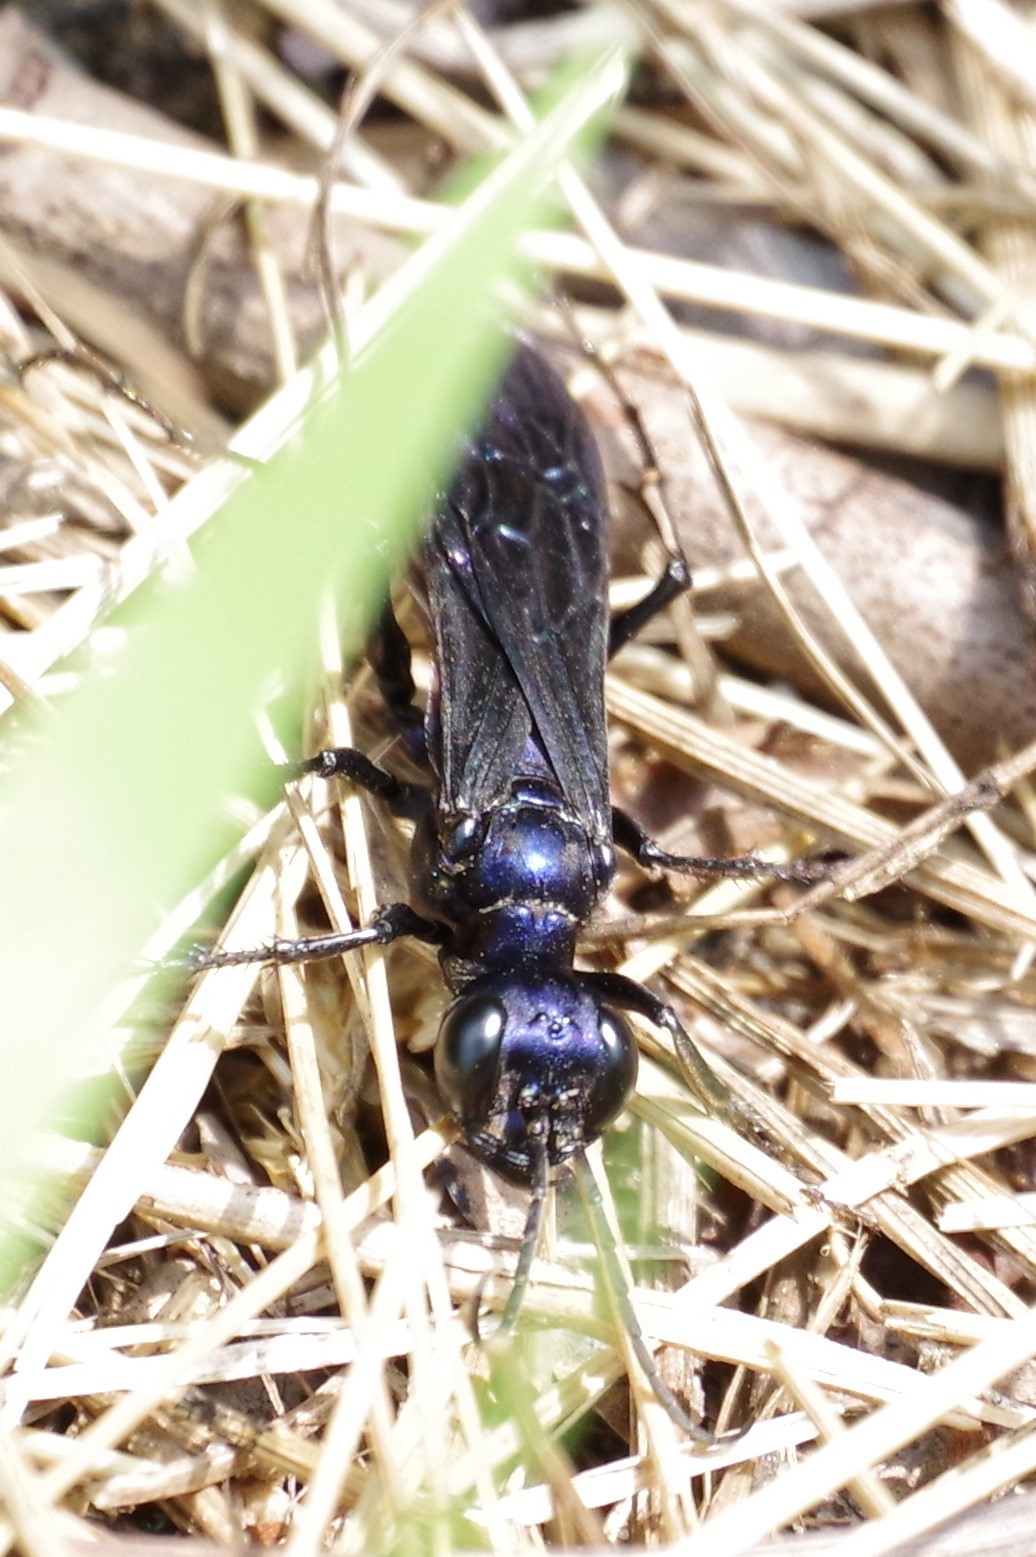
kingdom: Animalia
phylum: Arthropoda
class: Insecta
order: Hymenoptera
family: Sphecidae
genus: Chlorion
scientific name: Chlorion aerarium
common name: Steel-blue cricket hunter
